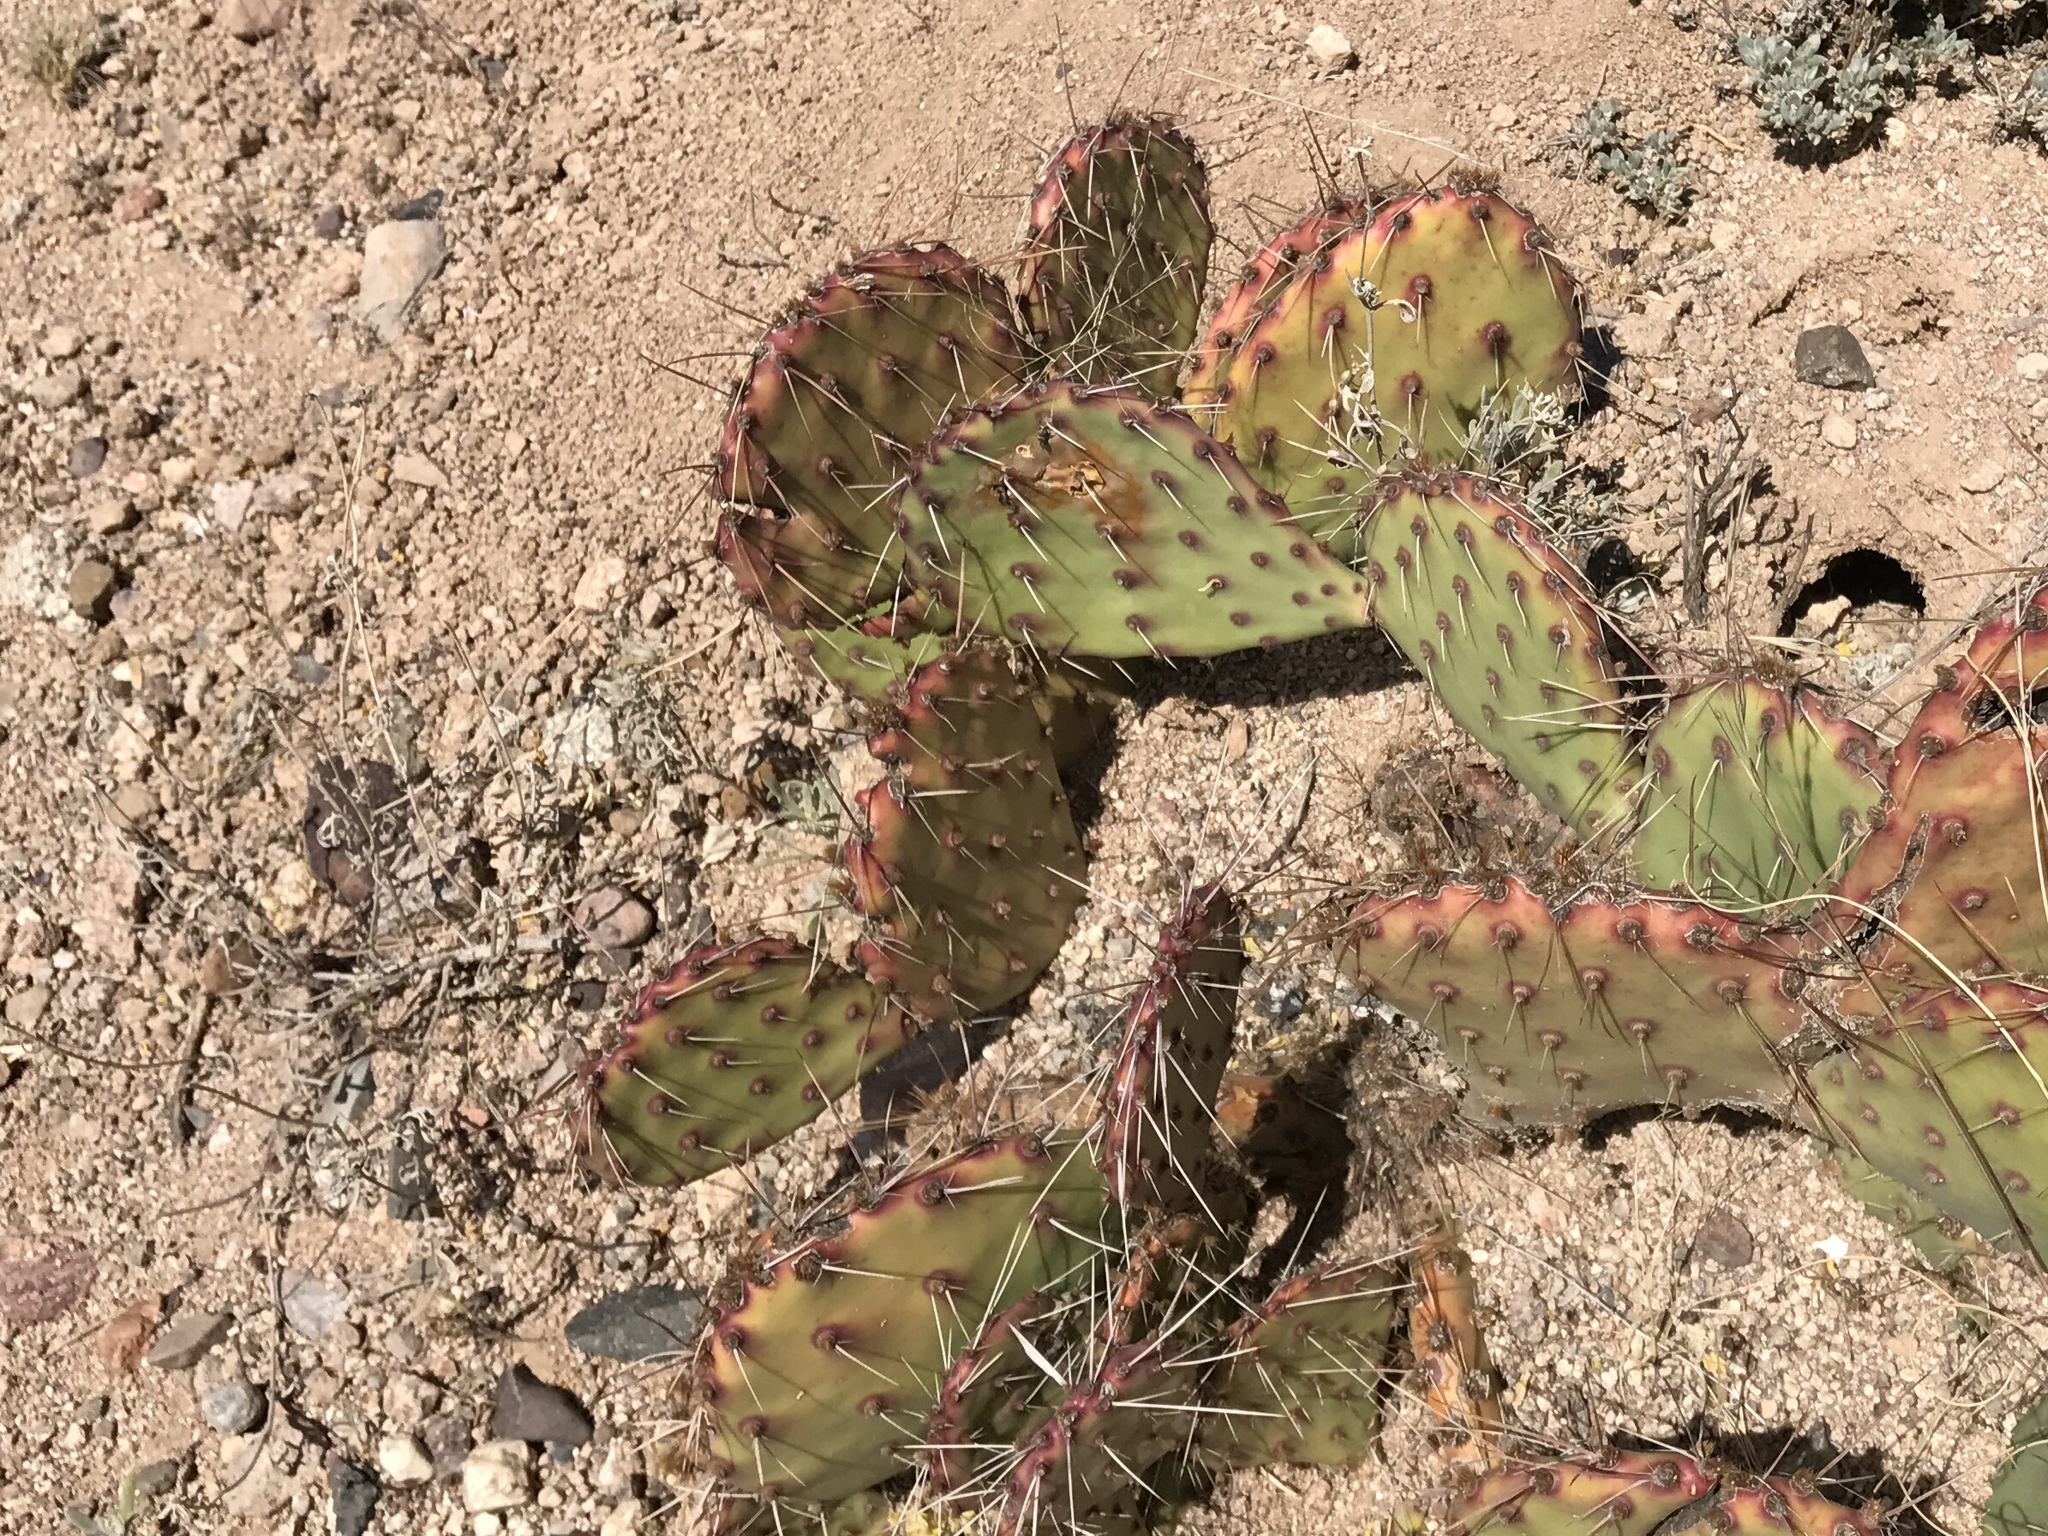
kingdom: Plantae
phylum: Tracheophyta
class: Magnoliopsida
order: Caryophyllales
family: Cactaceae
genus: Opuntia
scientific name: Opuntia phaeacantha
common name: New mexico prickly-pear
